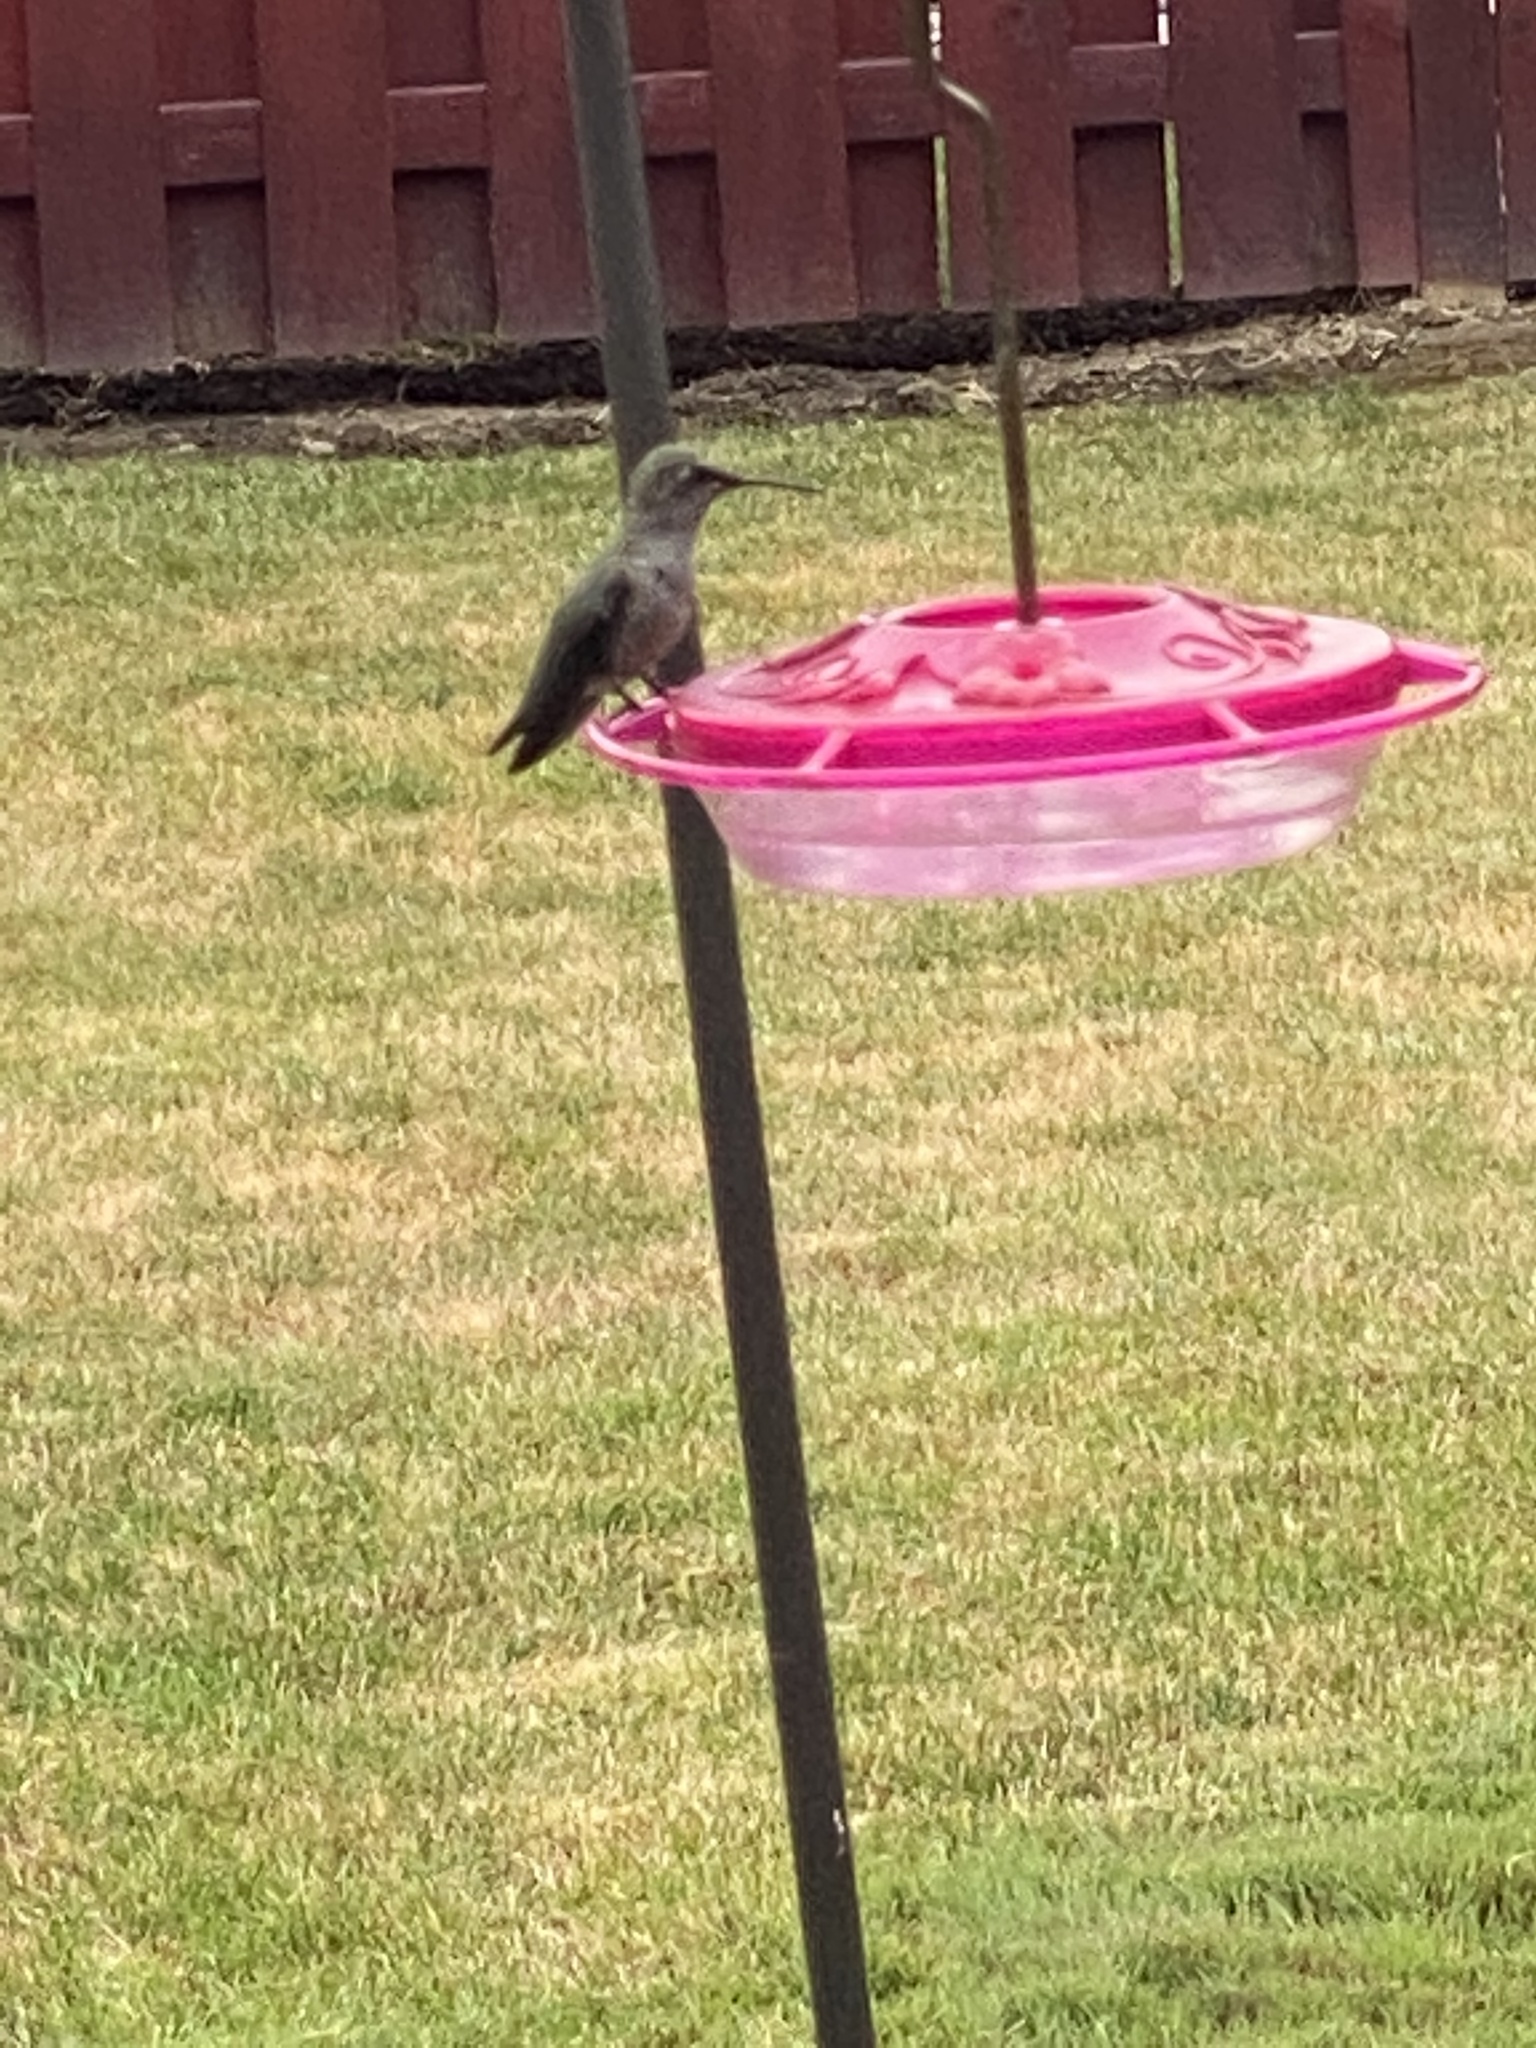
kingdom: Animalia
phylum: Chordata
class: Aves
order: Apodiformes
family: Trochilidae
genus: Calypte
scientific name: Calypte anna
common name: Anna's hummingbird
